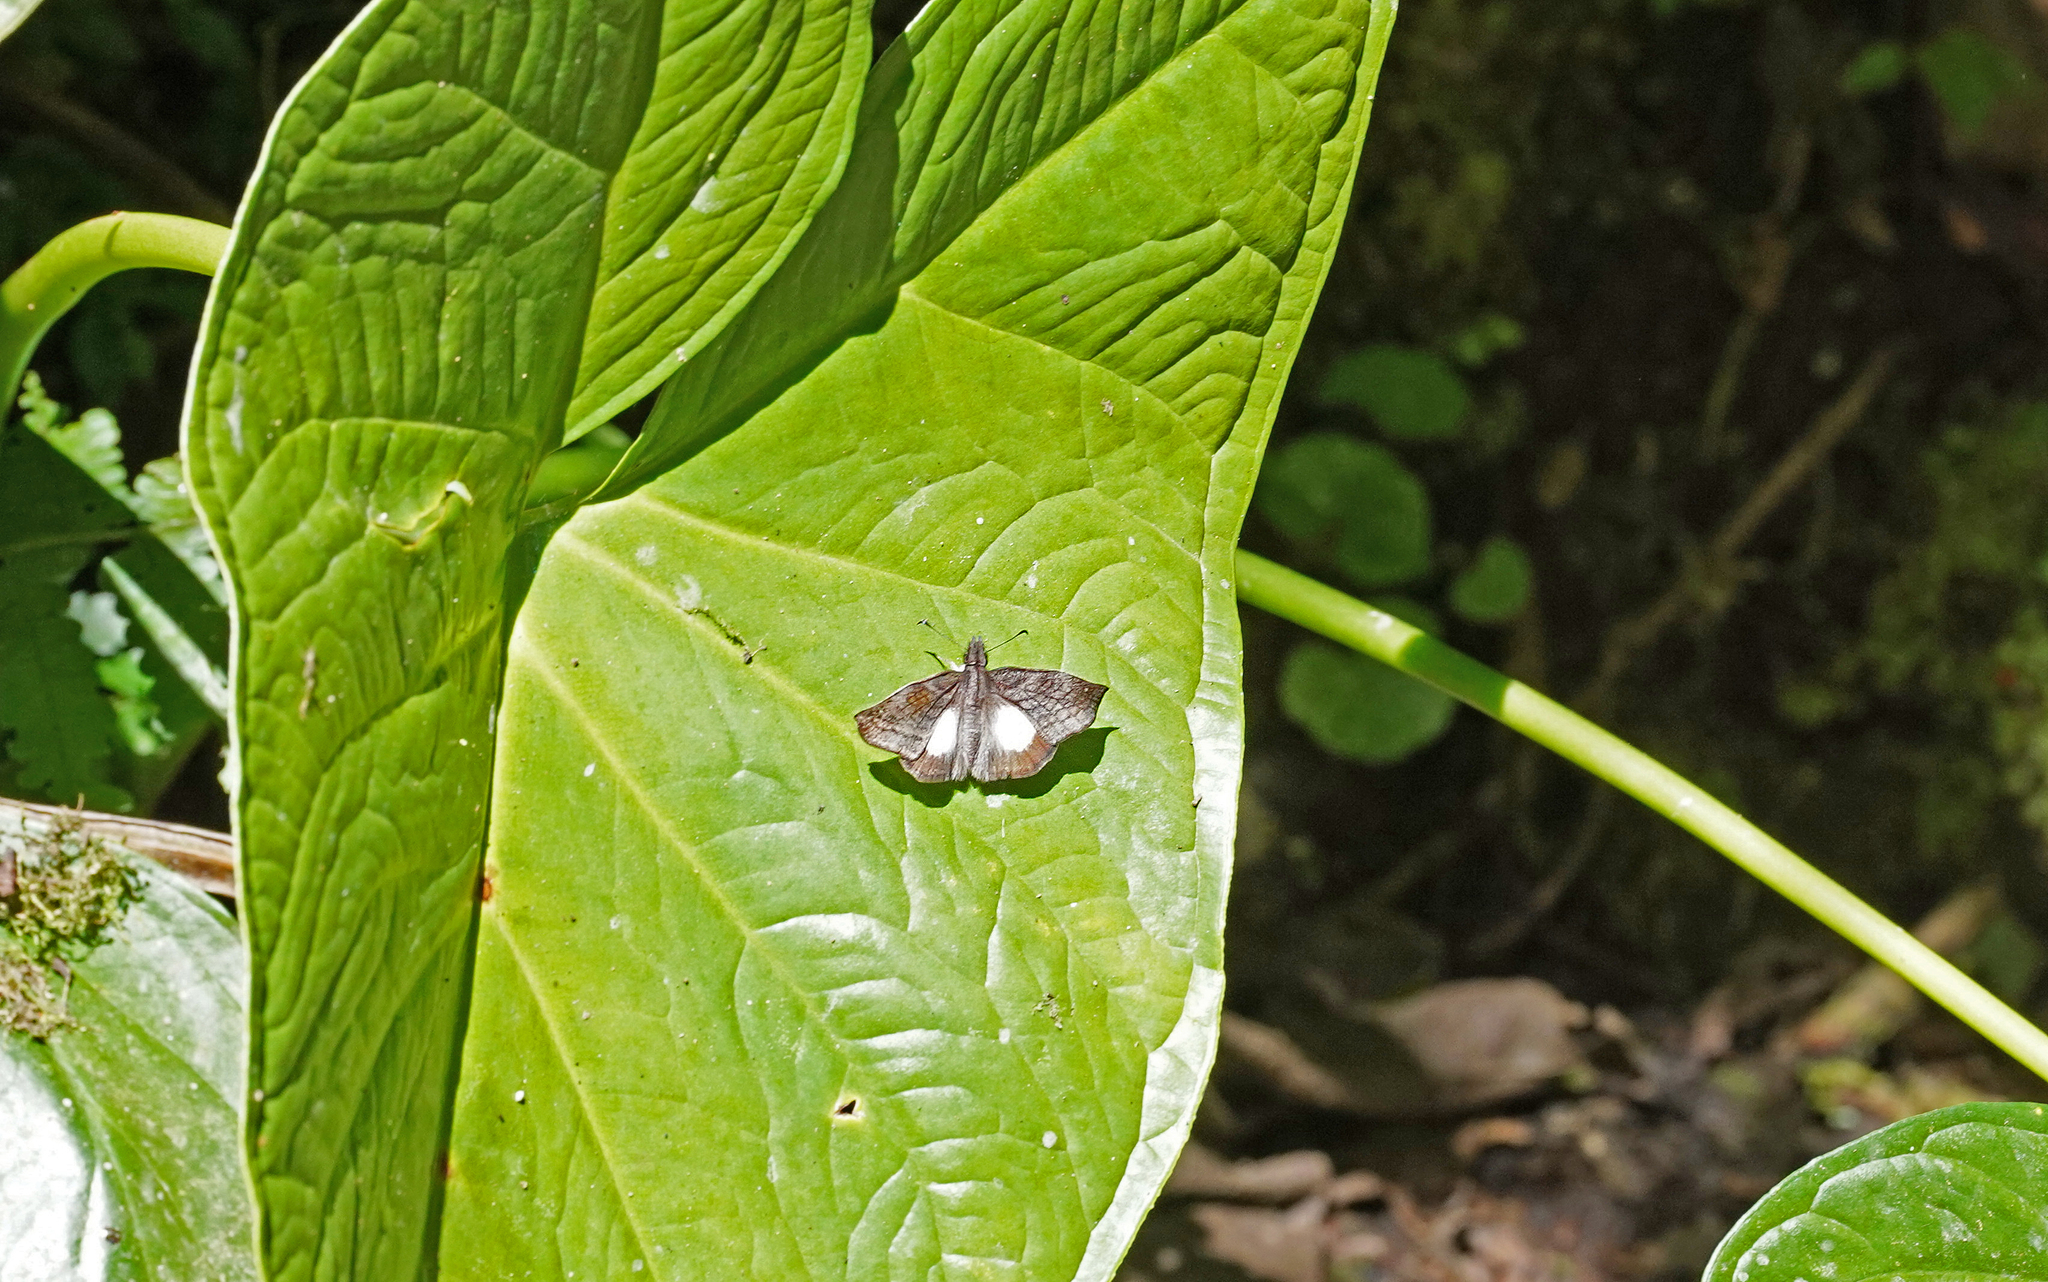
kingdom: Animalia
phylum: Arthropoda
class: Insecta
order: Lepidoptera
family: Hesperiidae
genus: Theagenes
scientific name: Theagenes albiplaga
